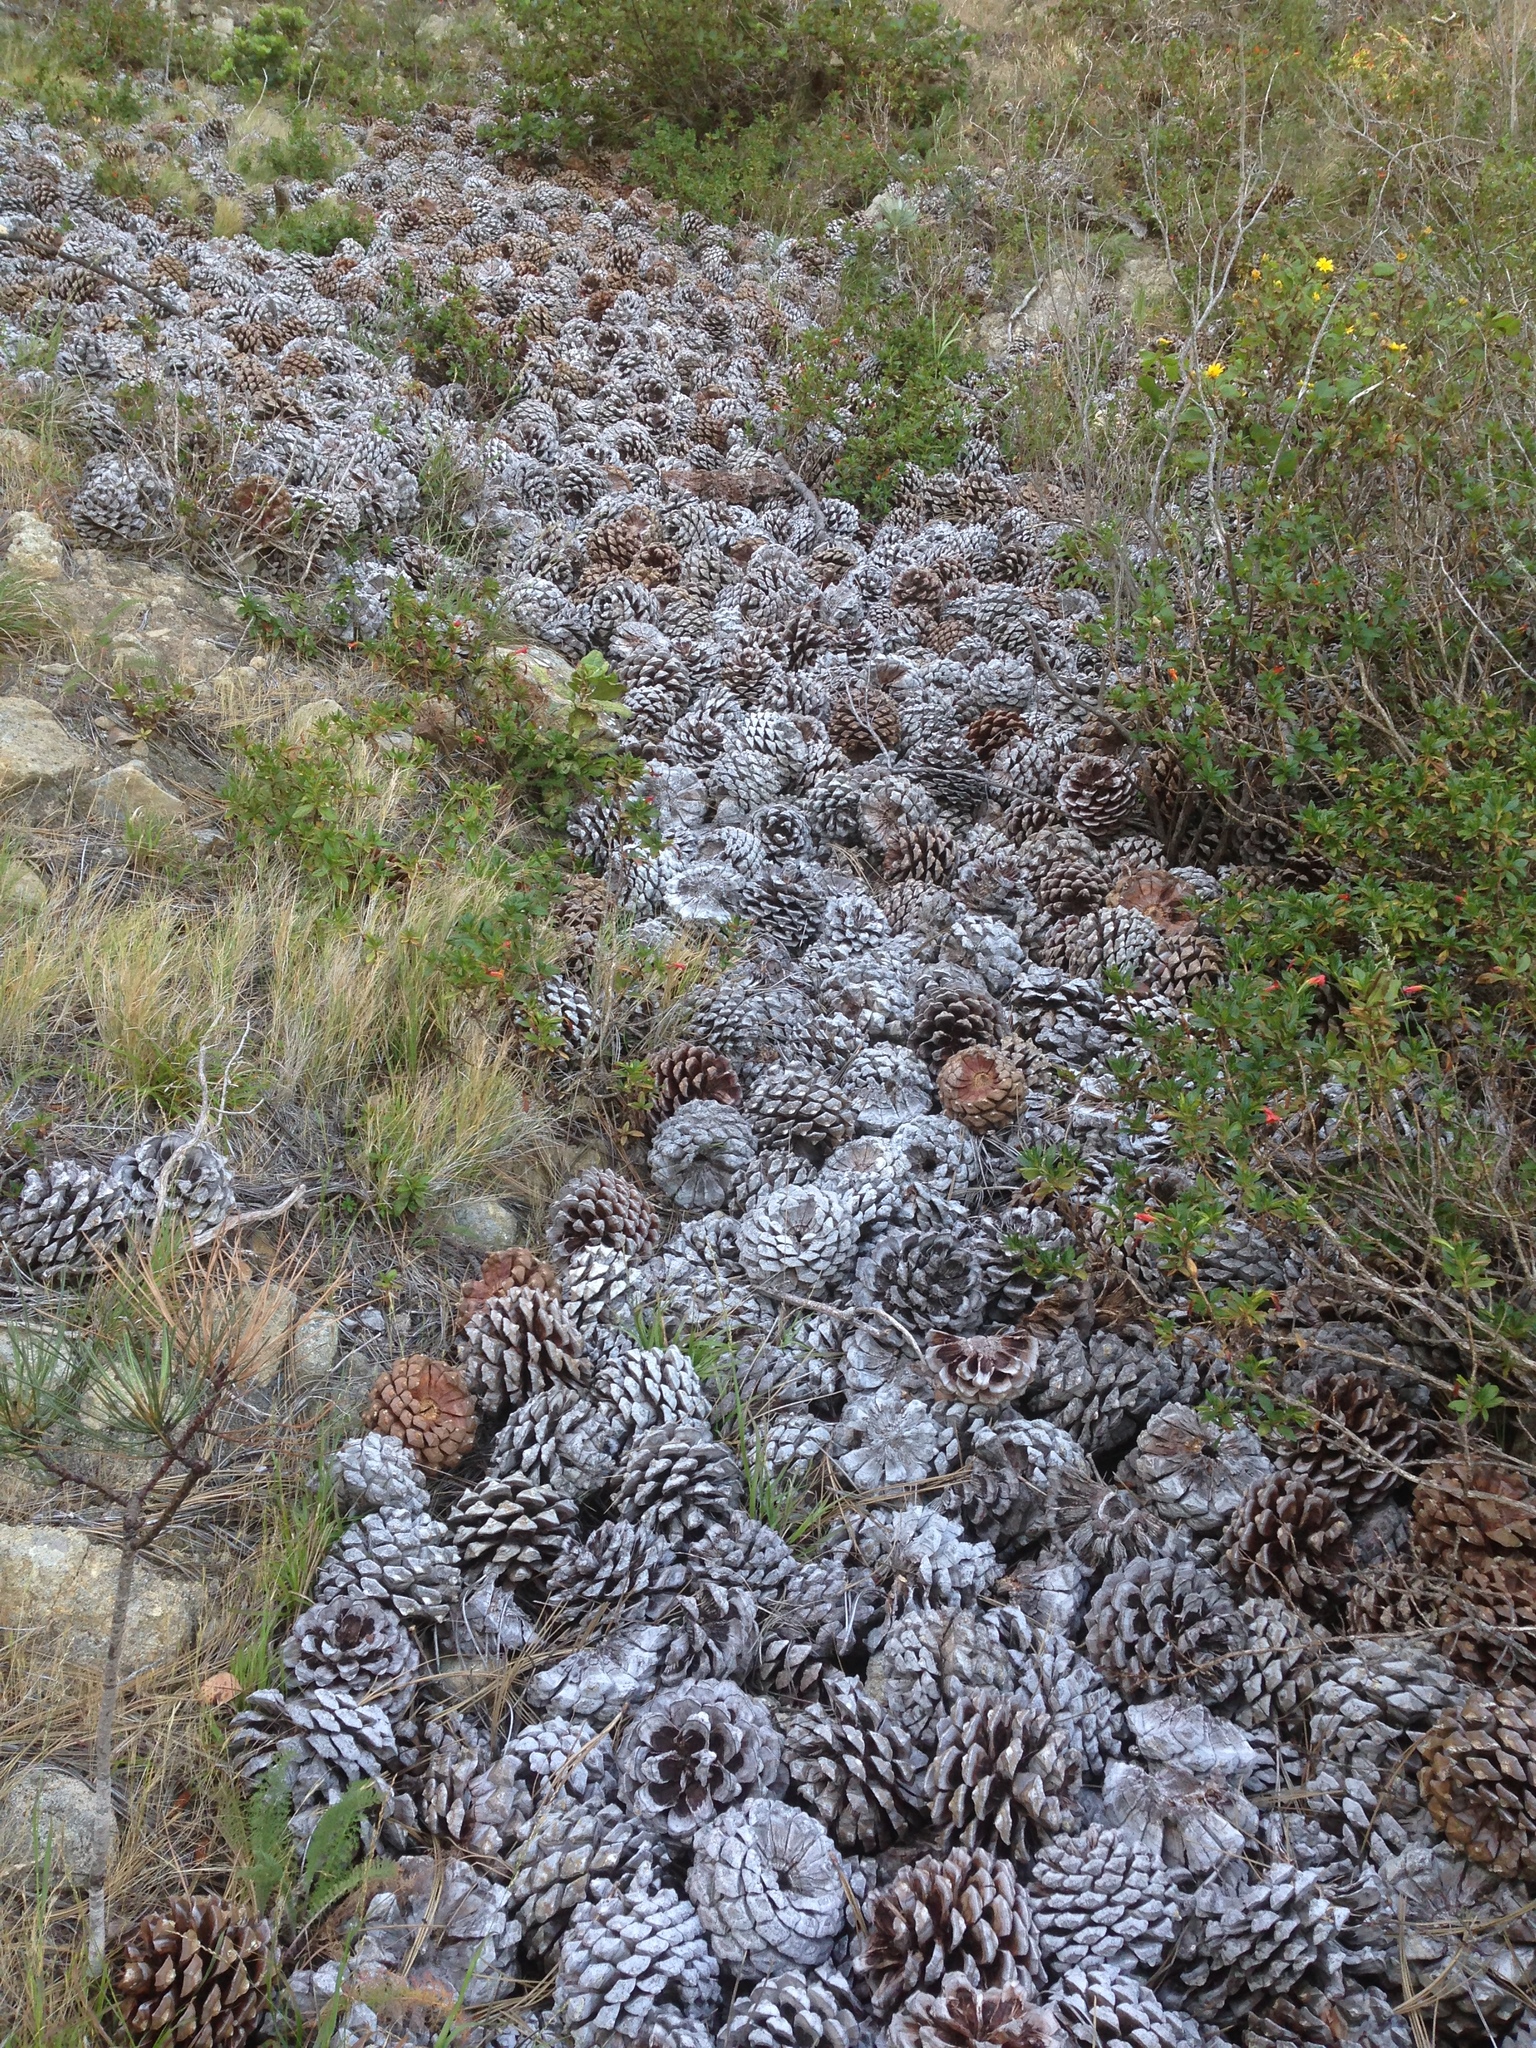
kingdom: Plantae
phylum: Tracheophyta
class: Pinopsida
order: Pinales
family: Pinaceae
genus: Pinus
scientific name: Pinus torreyana
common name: Torrey pine
